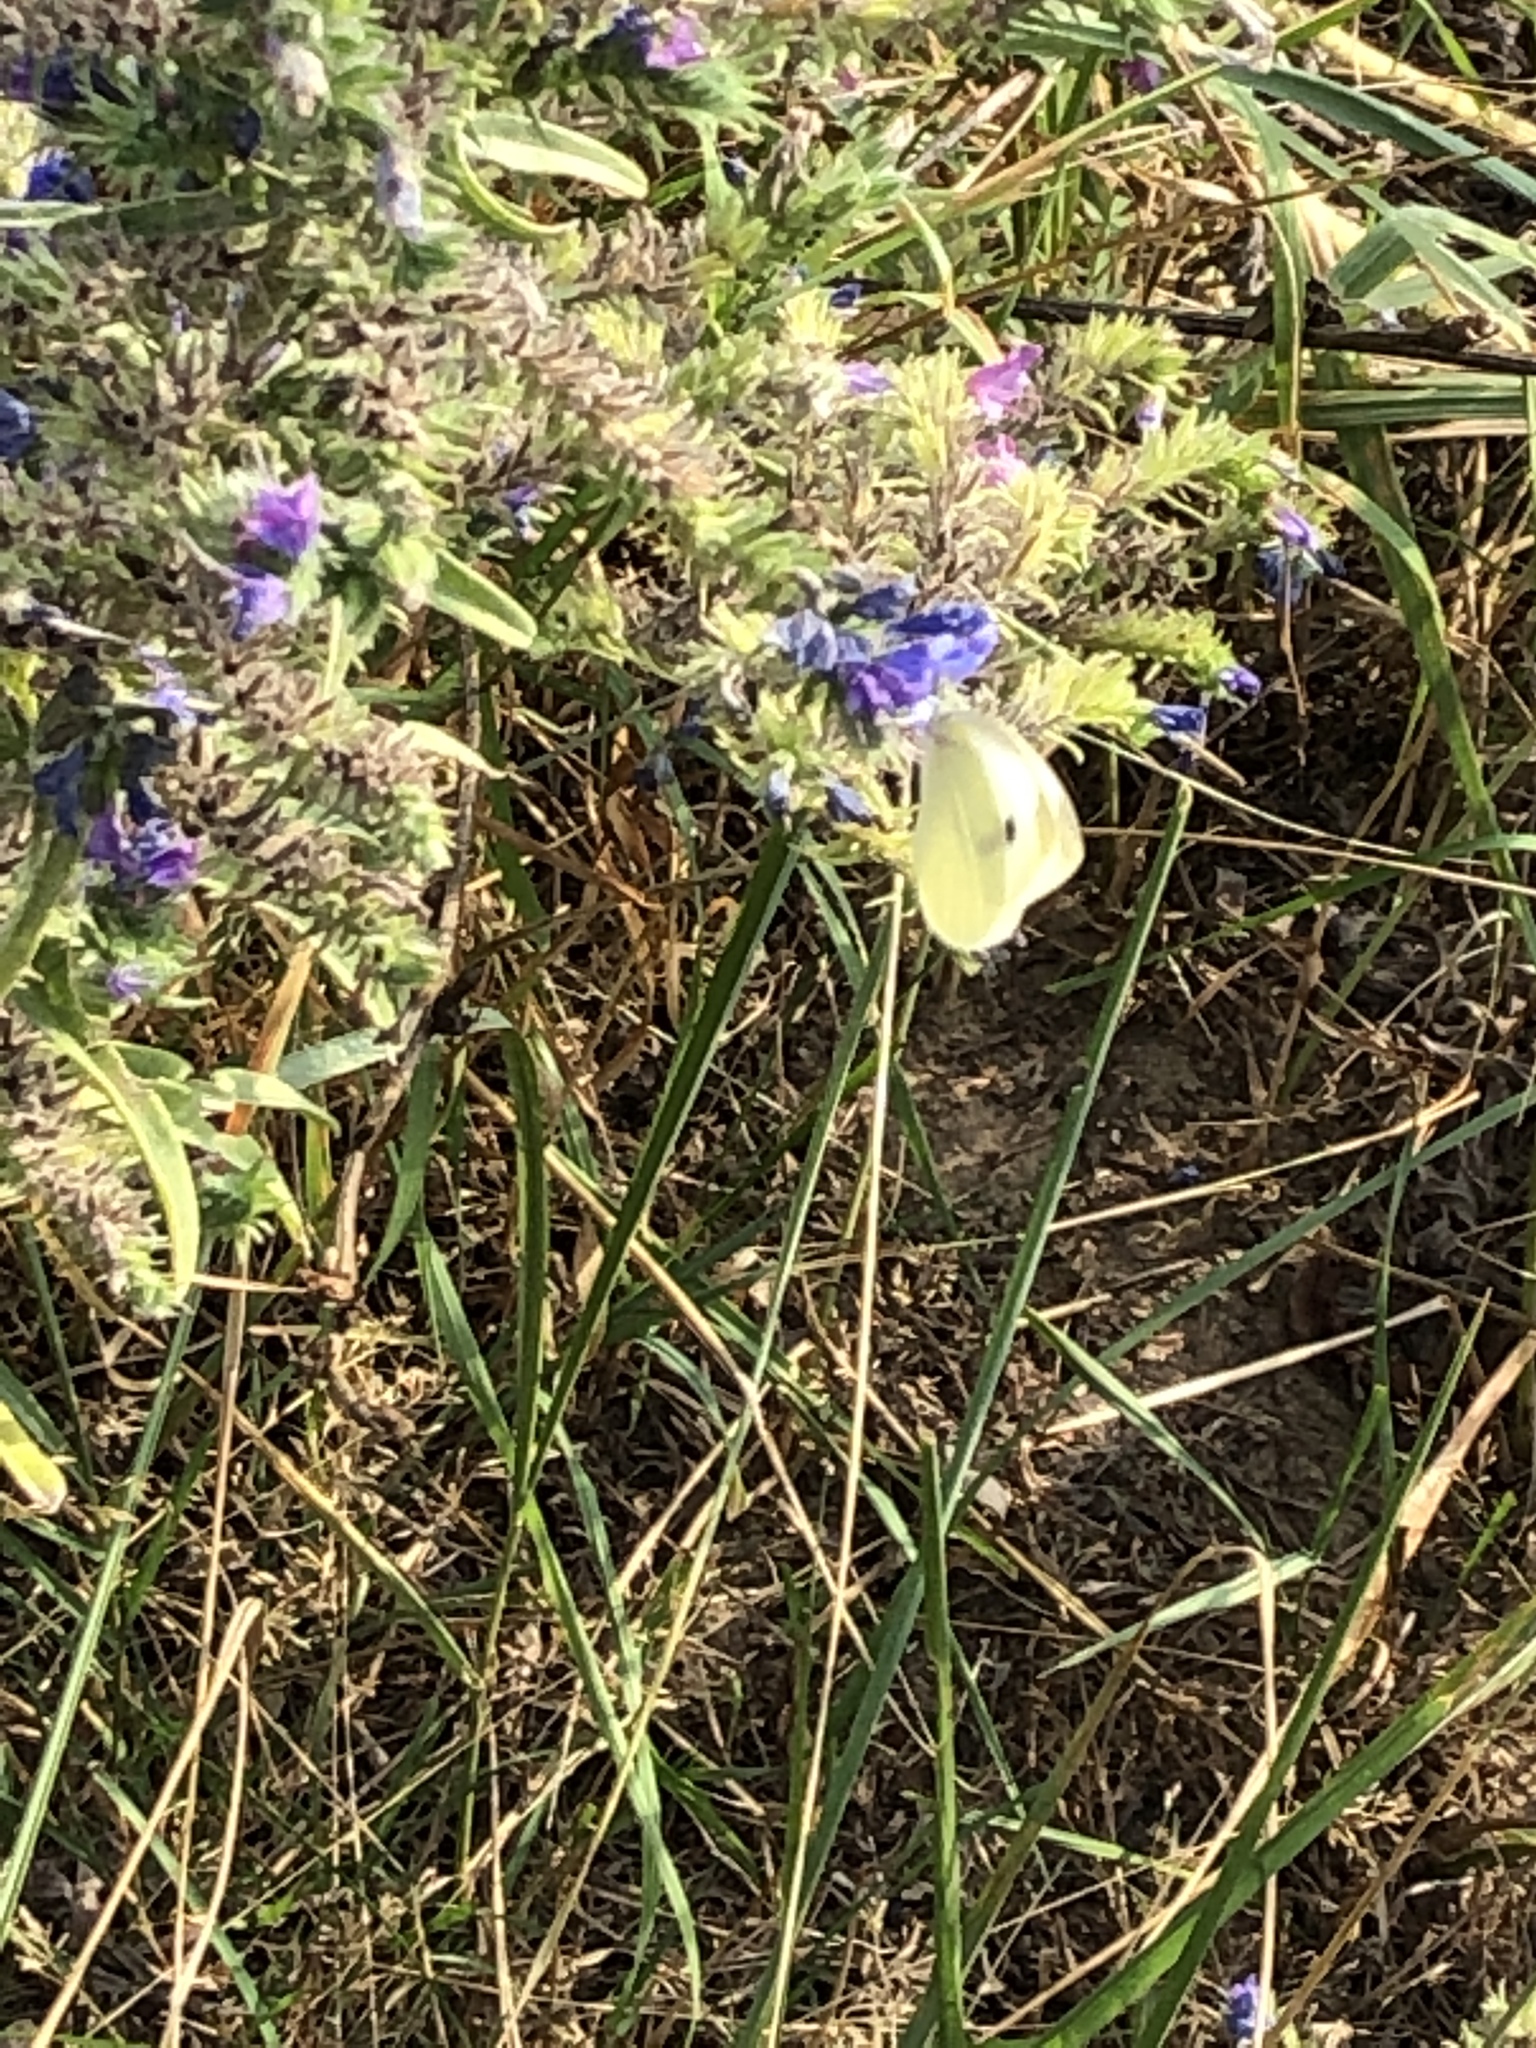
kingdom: Animalia
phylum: Arthropoda
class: Insecta
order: Lepidoptera
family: Pieridae
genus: Pieris
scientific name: Pieris rapae
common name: Small white
